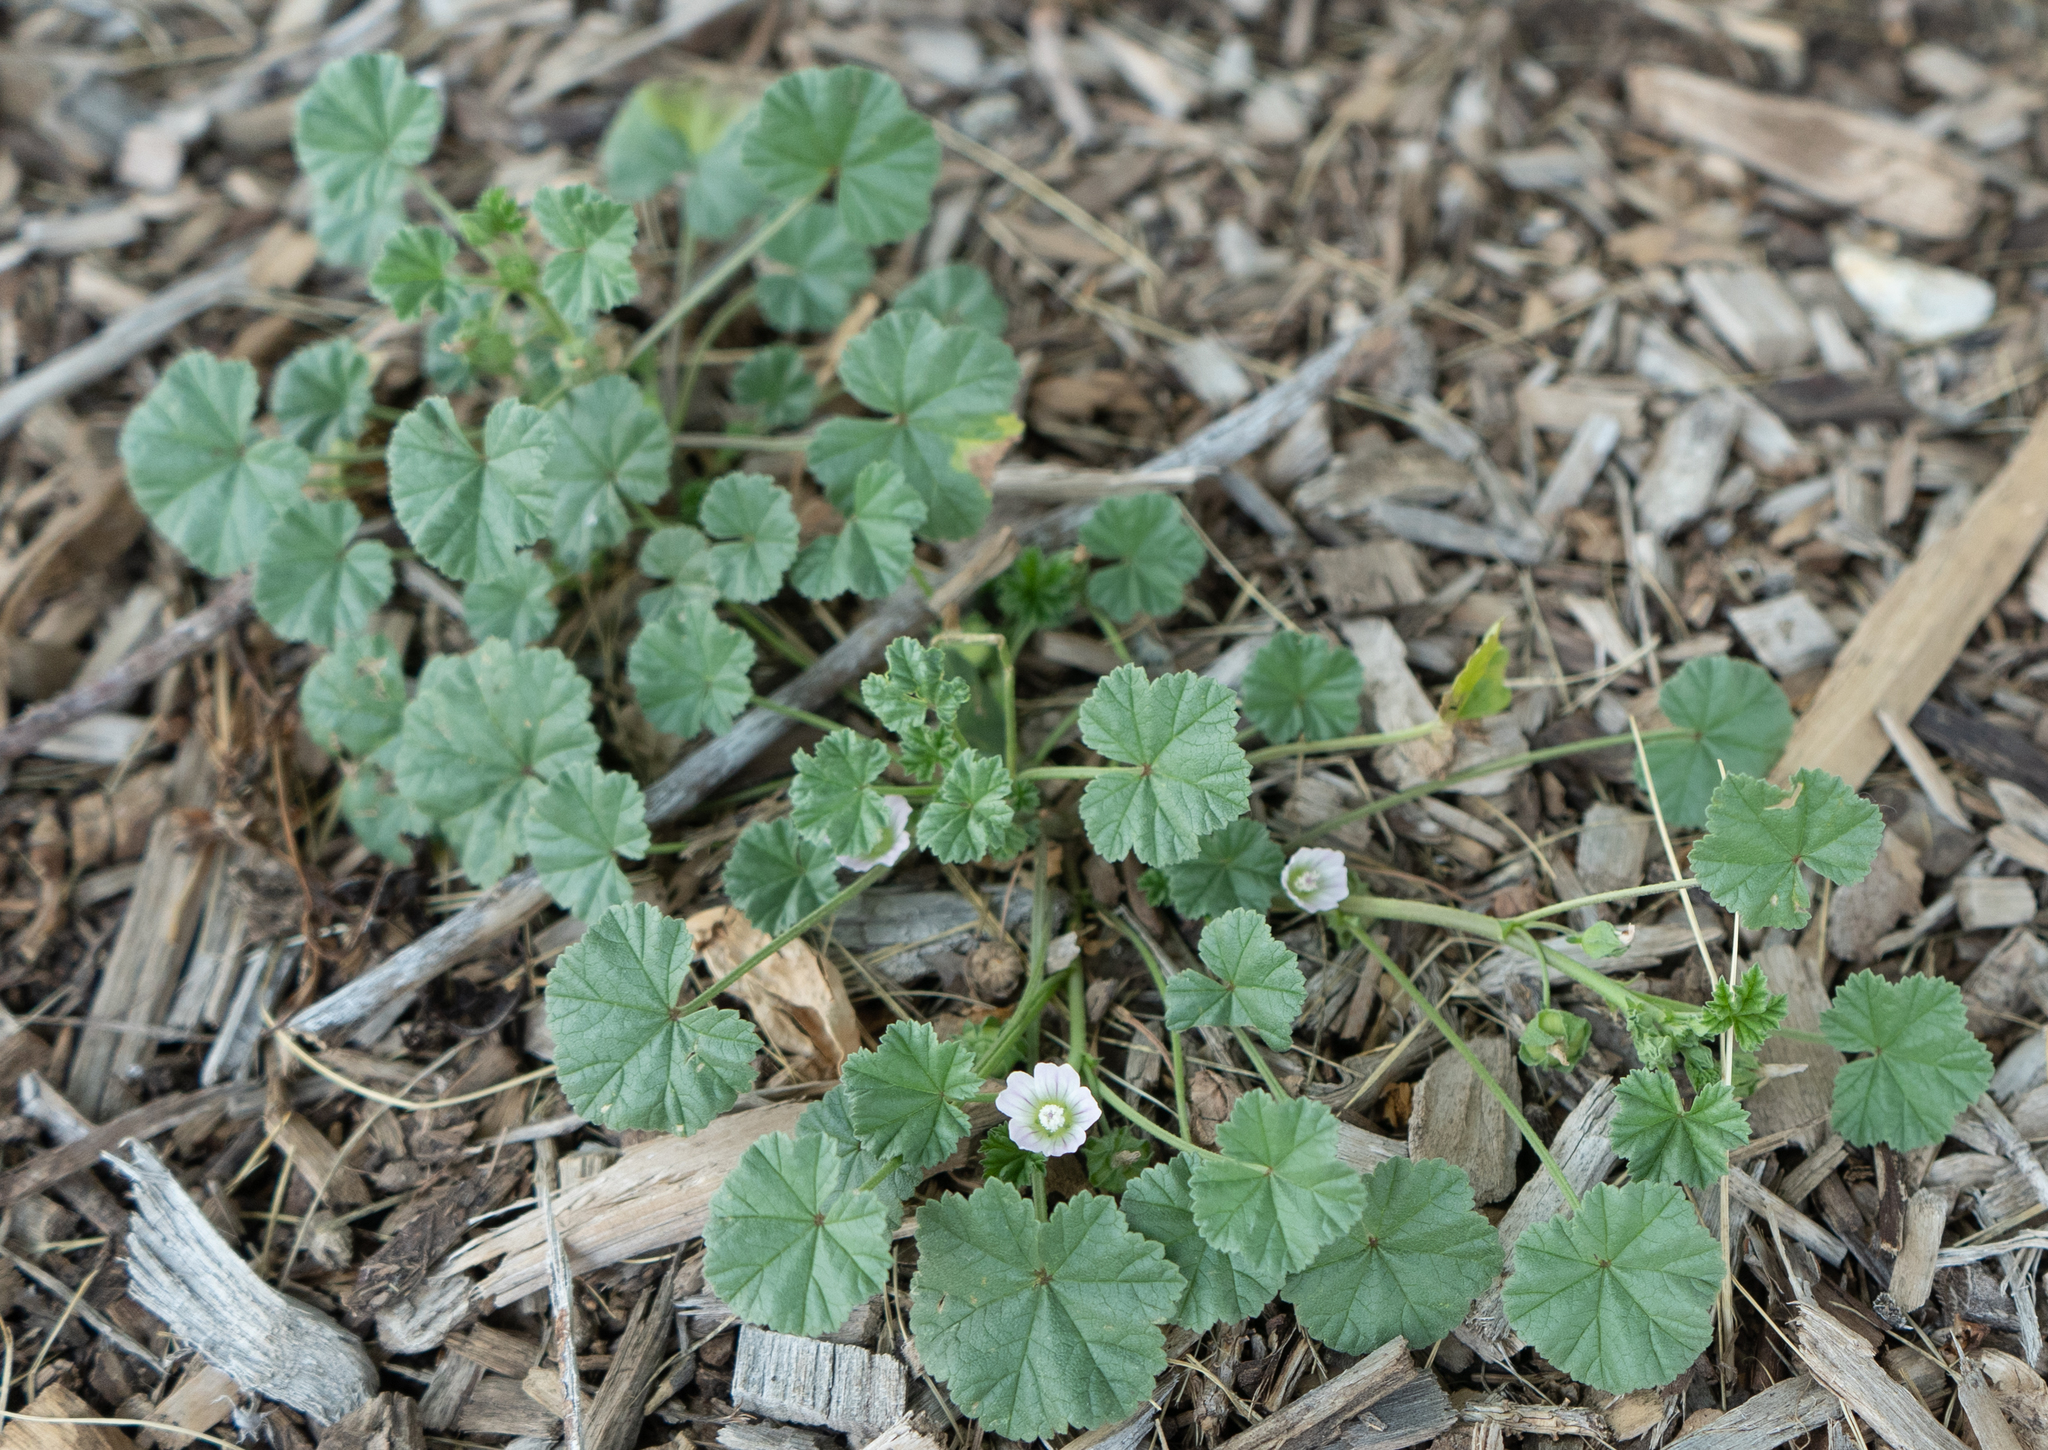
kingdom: Plantae
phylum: Tracheophyta
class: Magnoliopsida
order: Malvales
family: Malvaceae
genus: Malva
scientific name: Malva neglecta
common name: Common mallow
